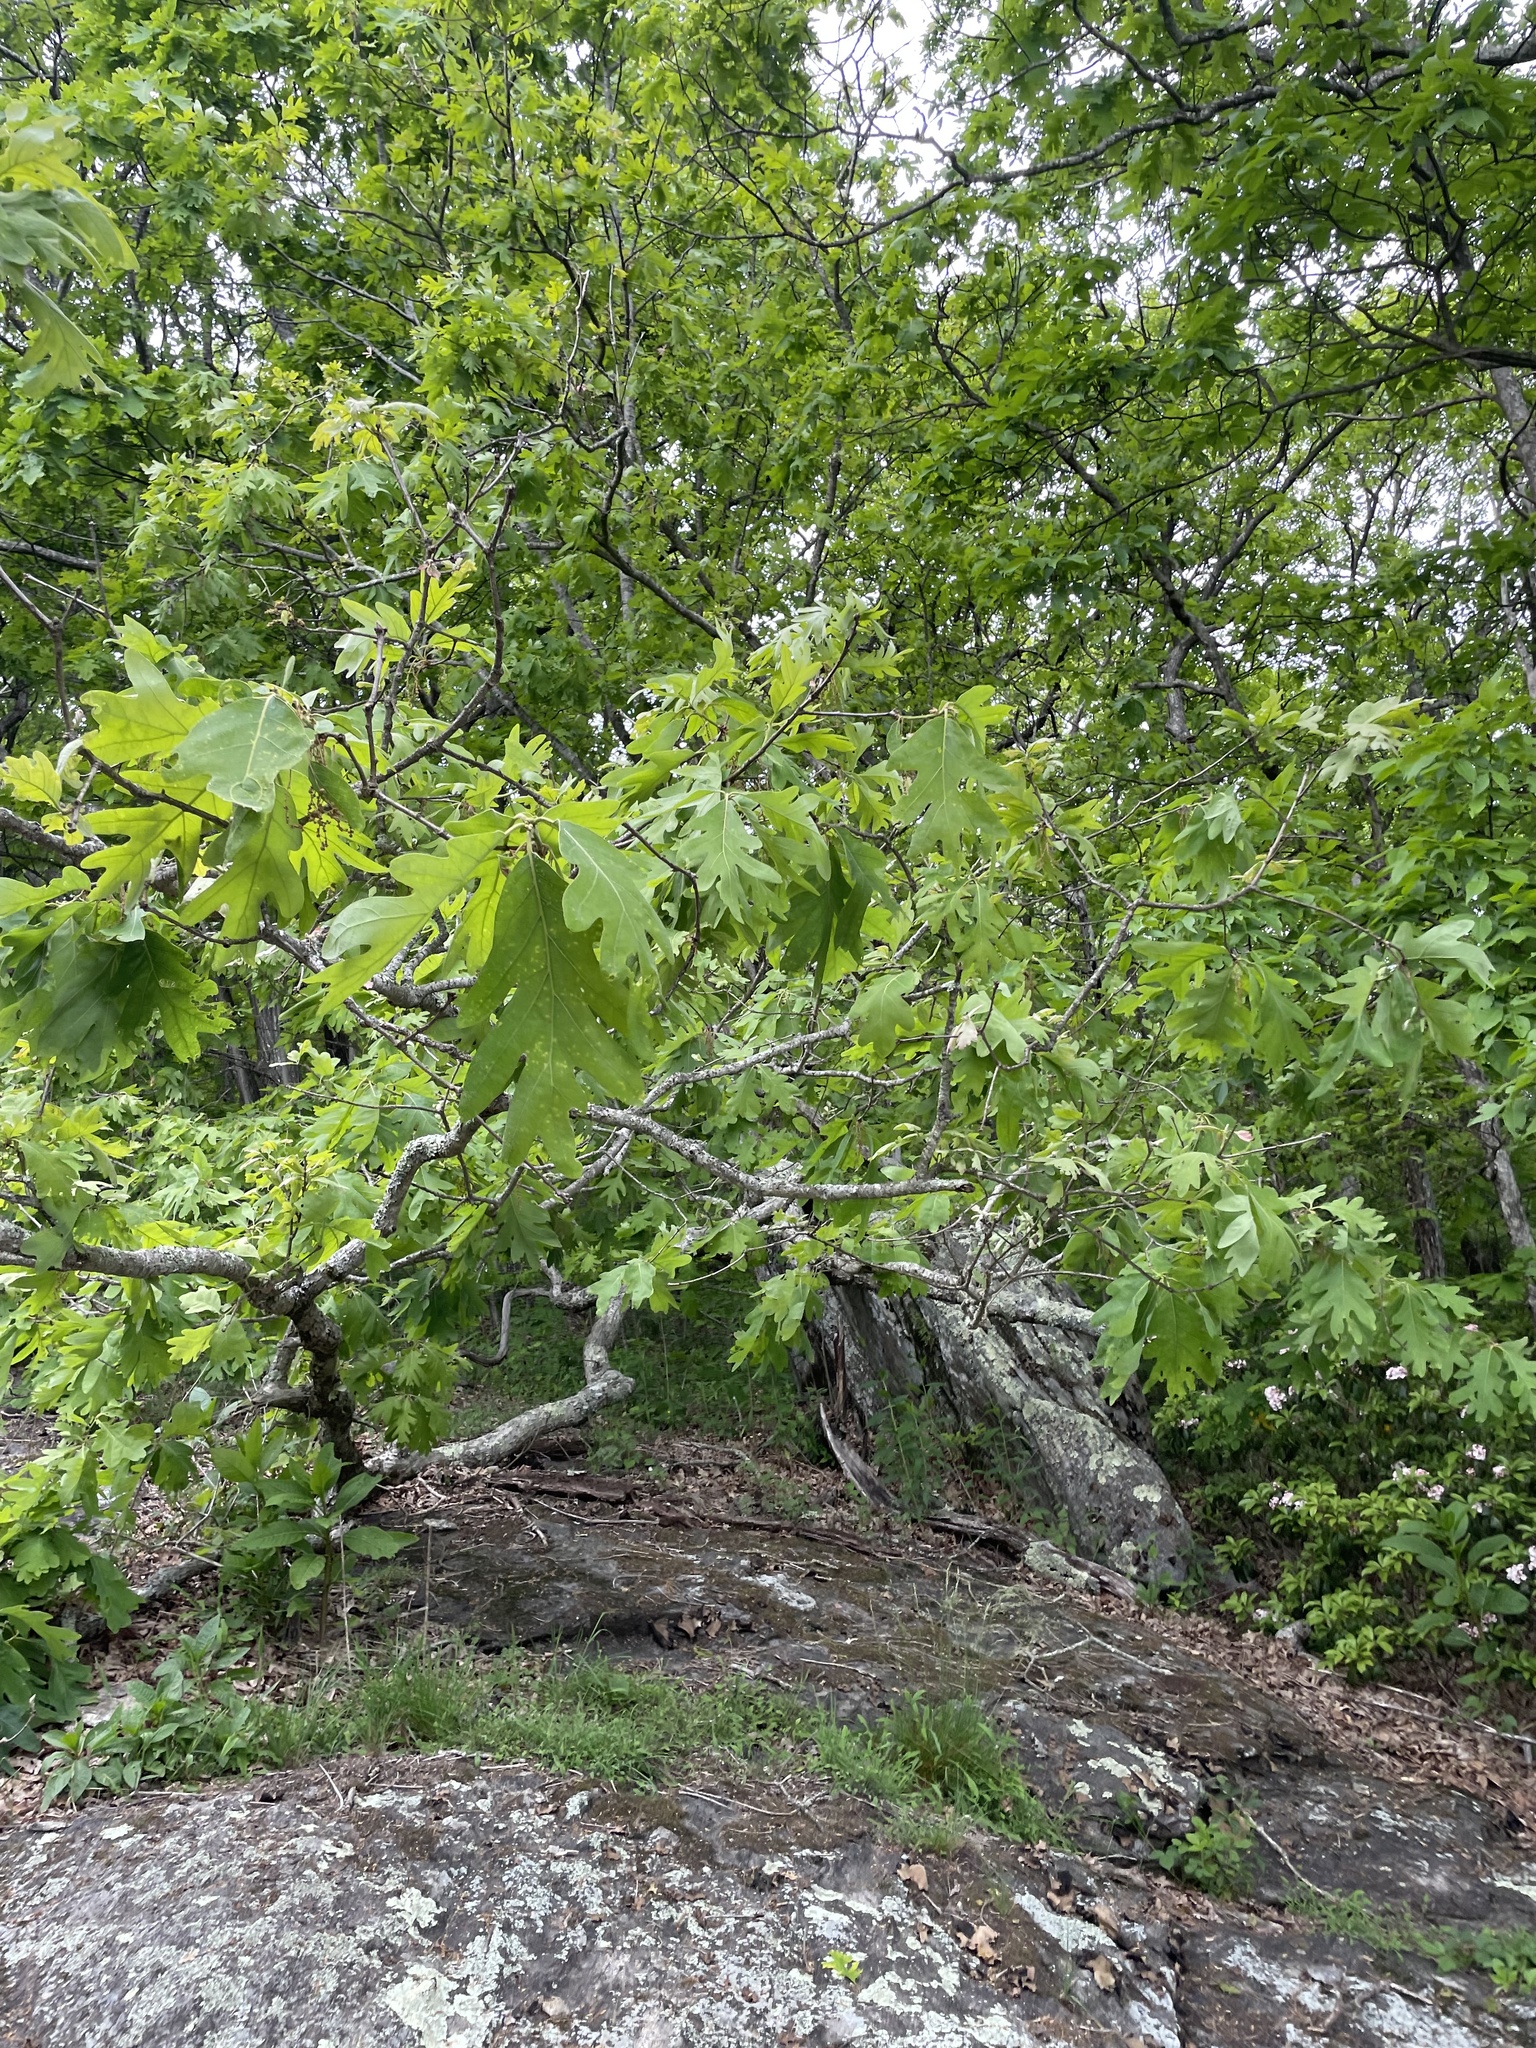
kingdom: Plantae
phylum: Tracheophyta
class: Magnoliopsida
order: Fagales
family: Fagaceae
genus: Quercus
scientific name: Quercus alba
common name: White oak
